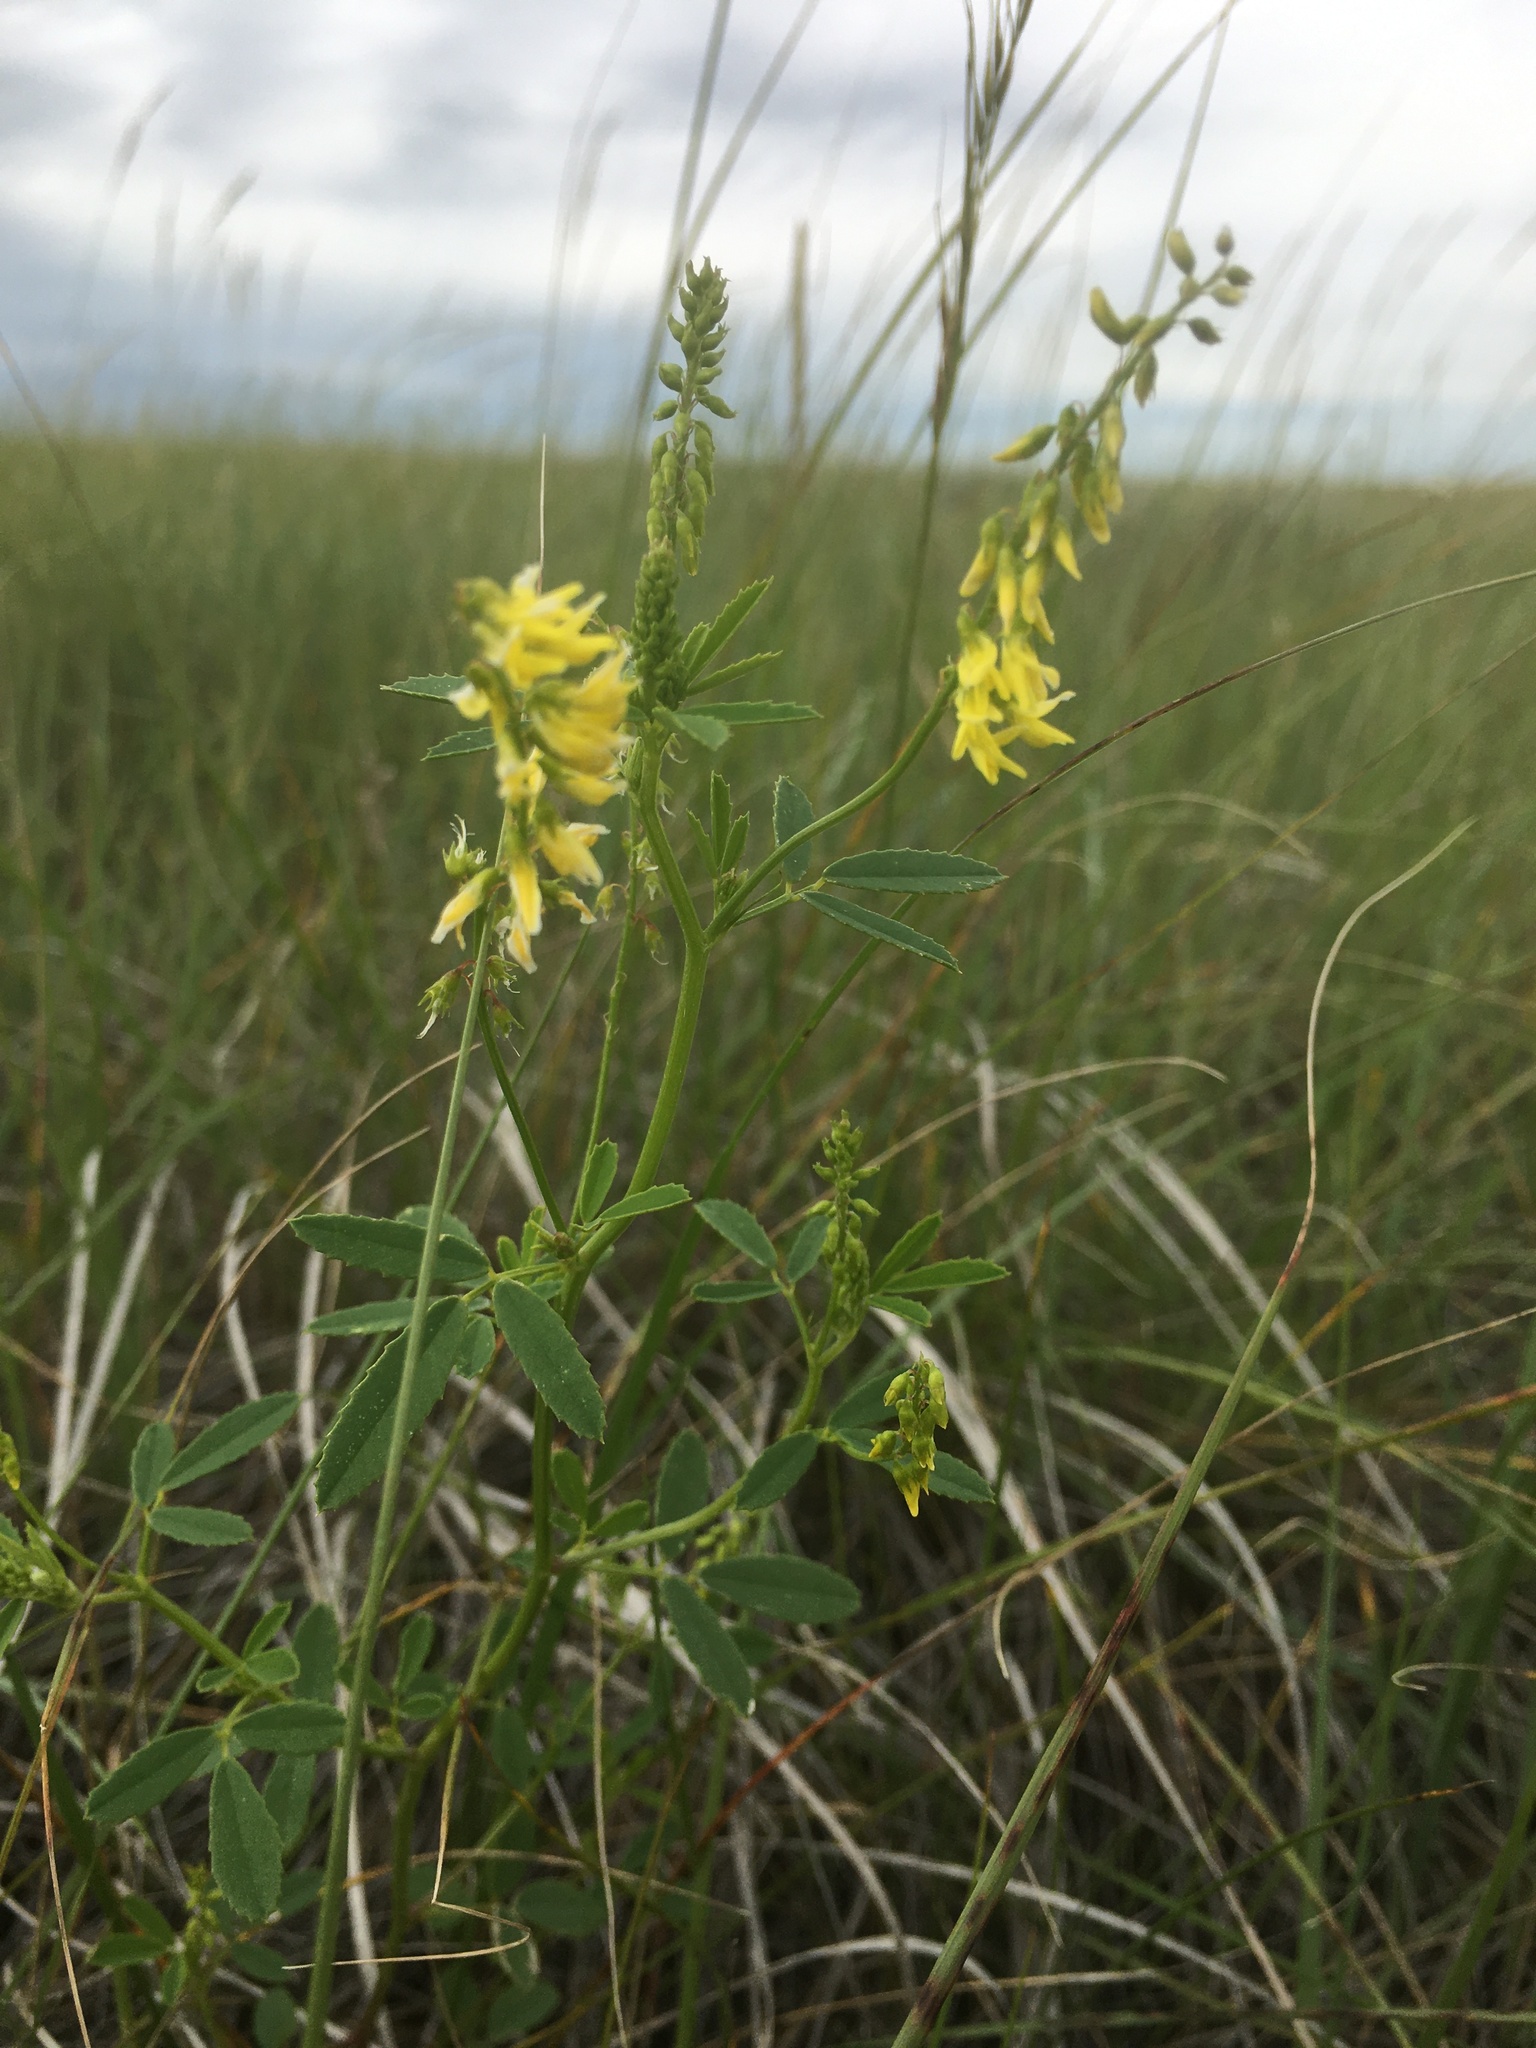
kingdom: Plantae
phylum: Tracheophyta
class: Magnoliopsida
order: Fabales
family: Fabaceae
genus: Melilotus
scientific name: Melilotus officinalis
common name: Sweetclover
